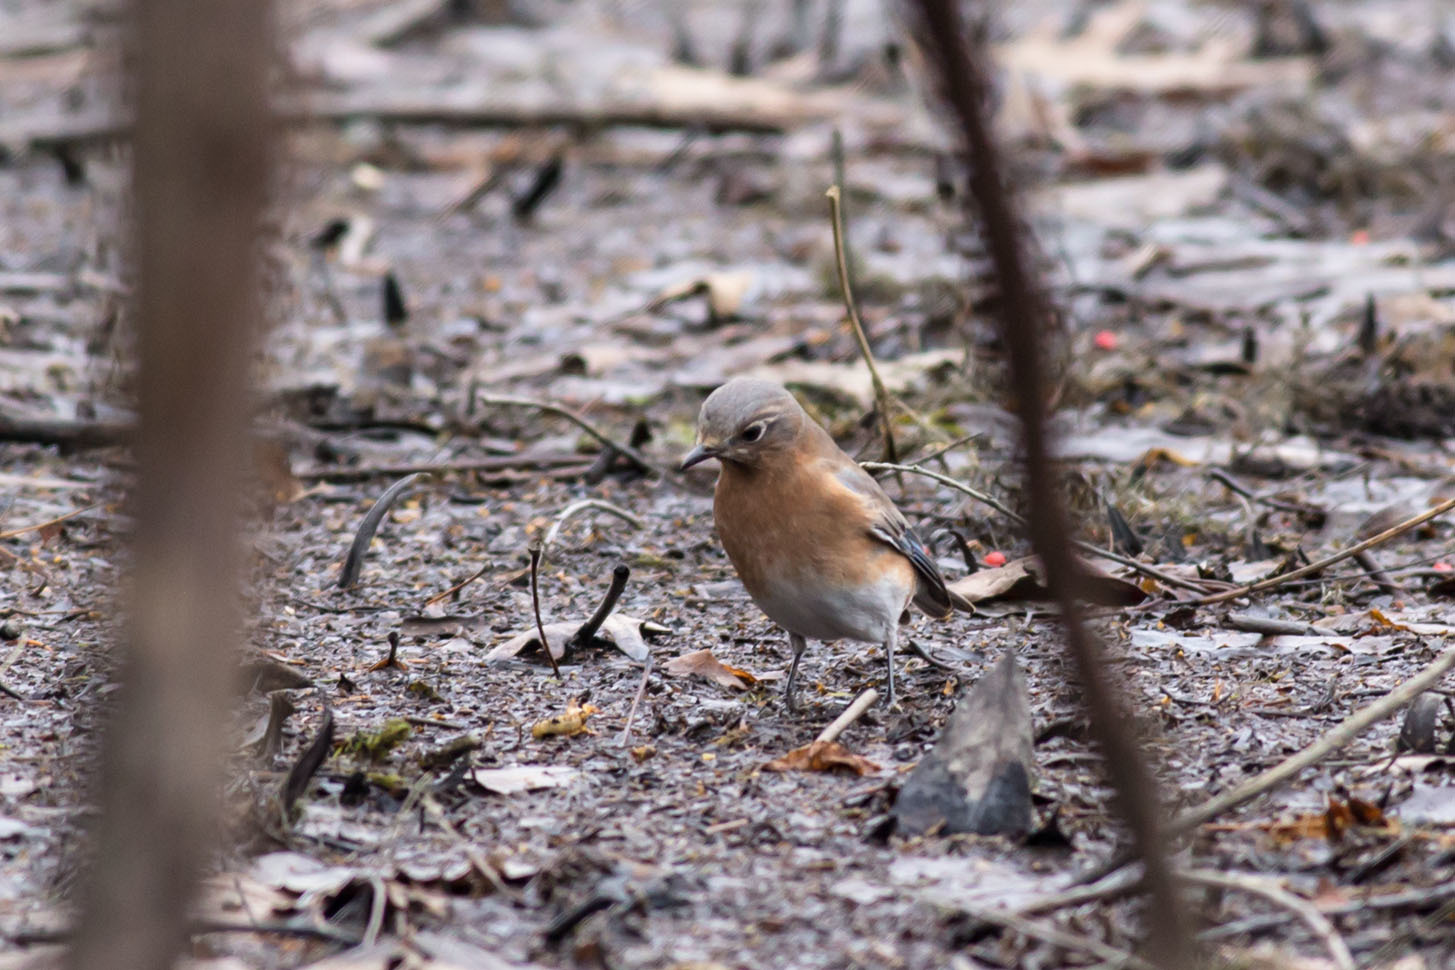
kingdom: Animalia
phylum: Chordata
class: Aves
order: Passeriformes
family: Turdidae
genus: Sialia
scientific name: Sialia sialis
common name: Eastern bluebird
